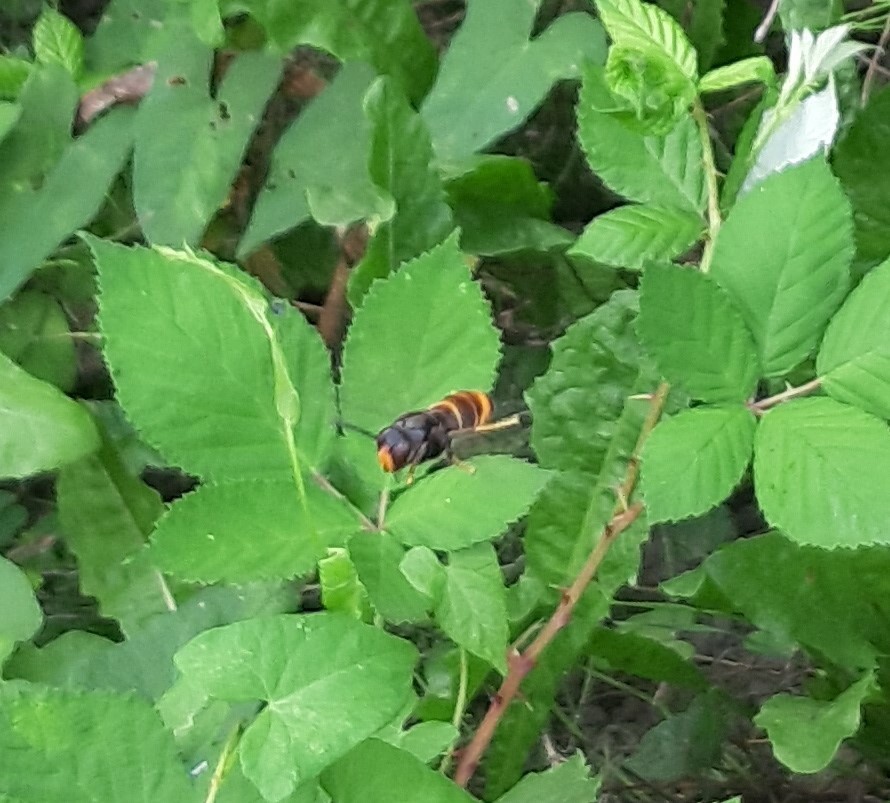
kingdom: Animalia
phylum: Arthropoda
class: Insecta
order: Hymenoptera
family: Vespidae
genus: Vespa
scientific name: Vespa velutina
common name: Asian hornet
